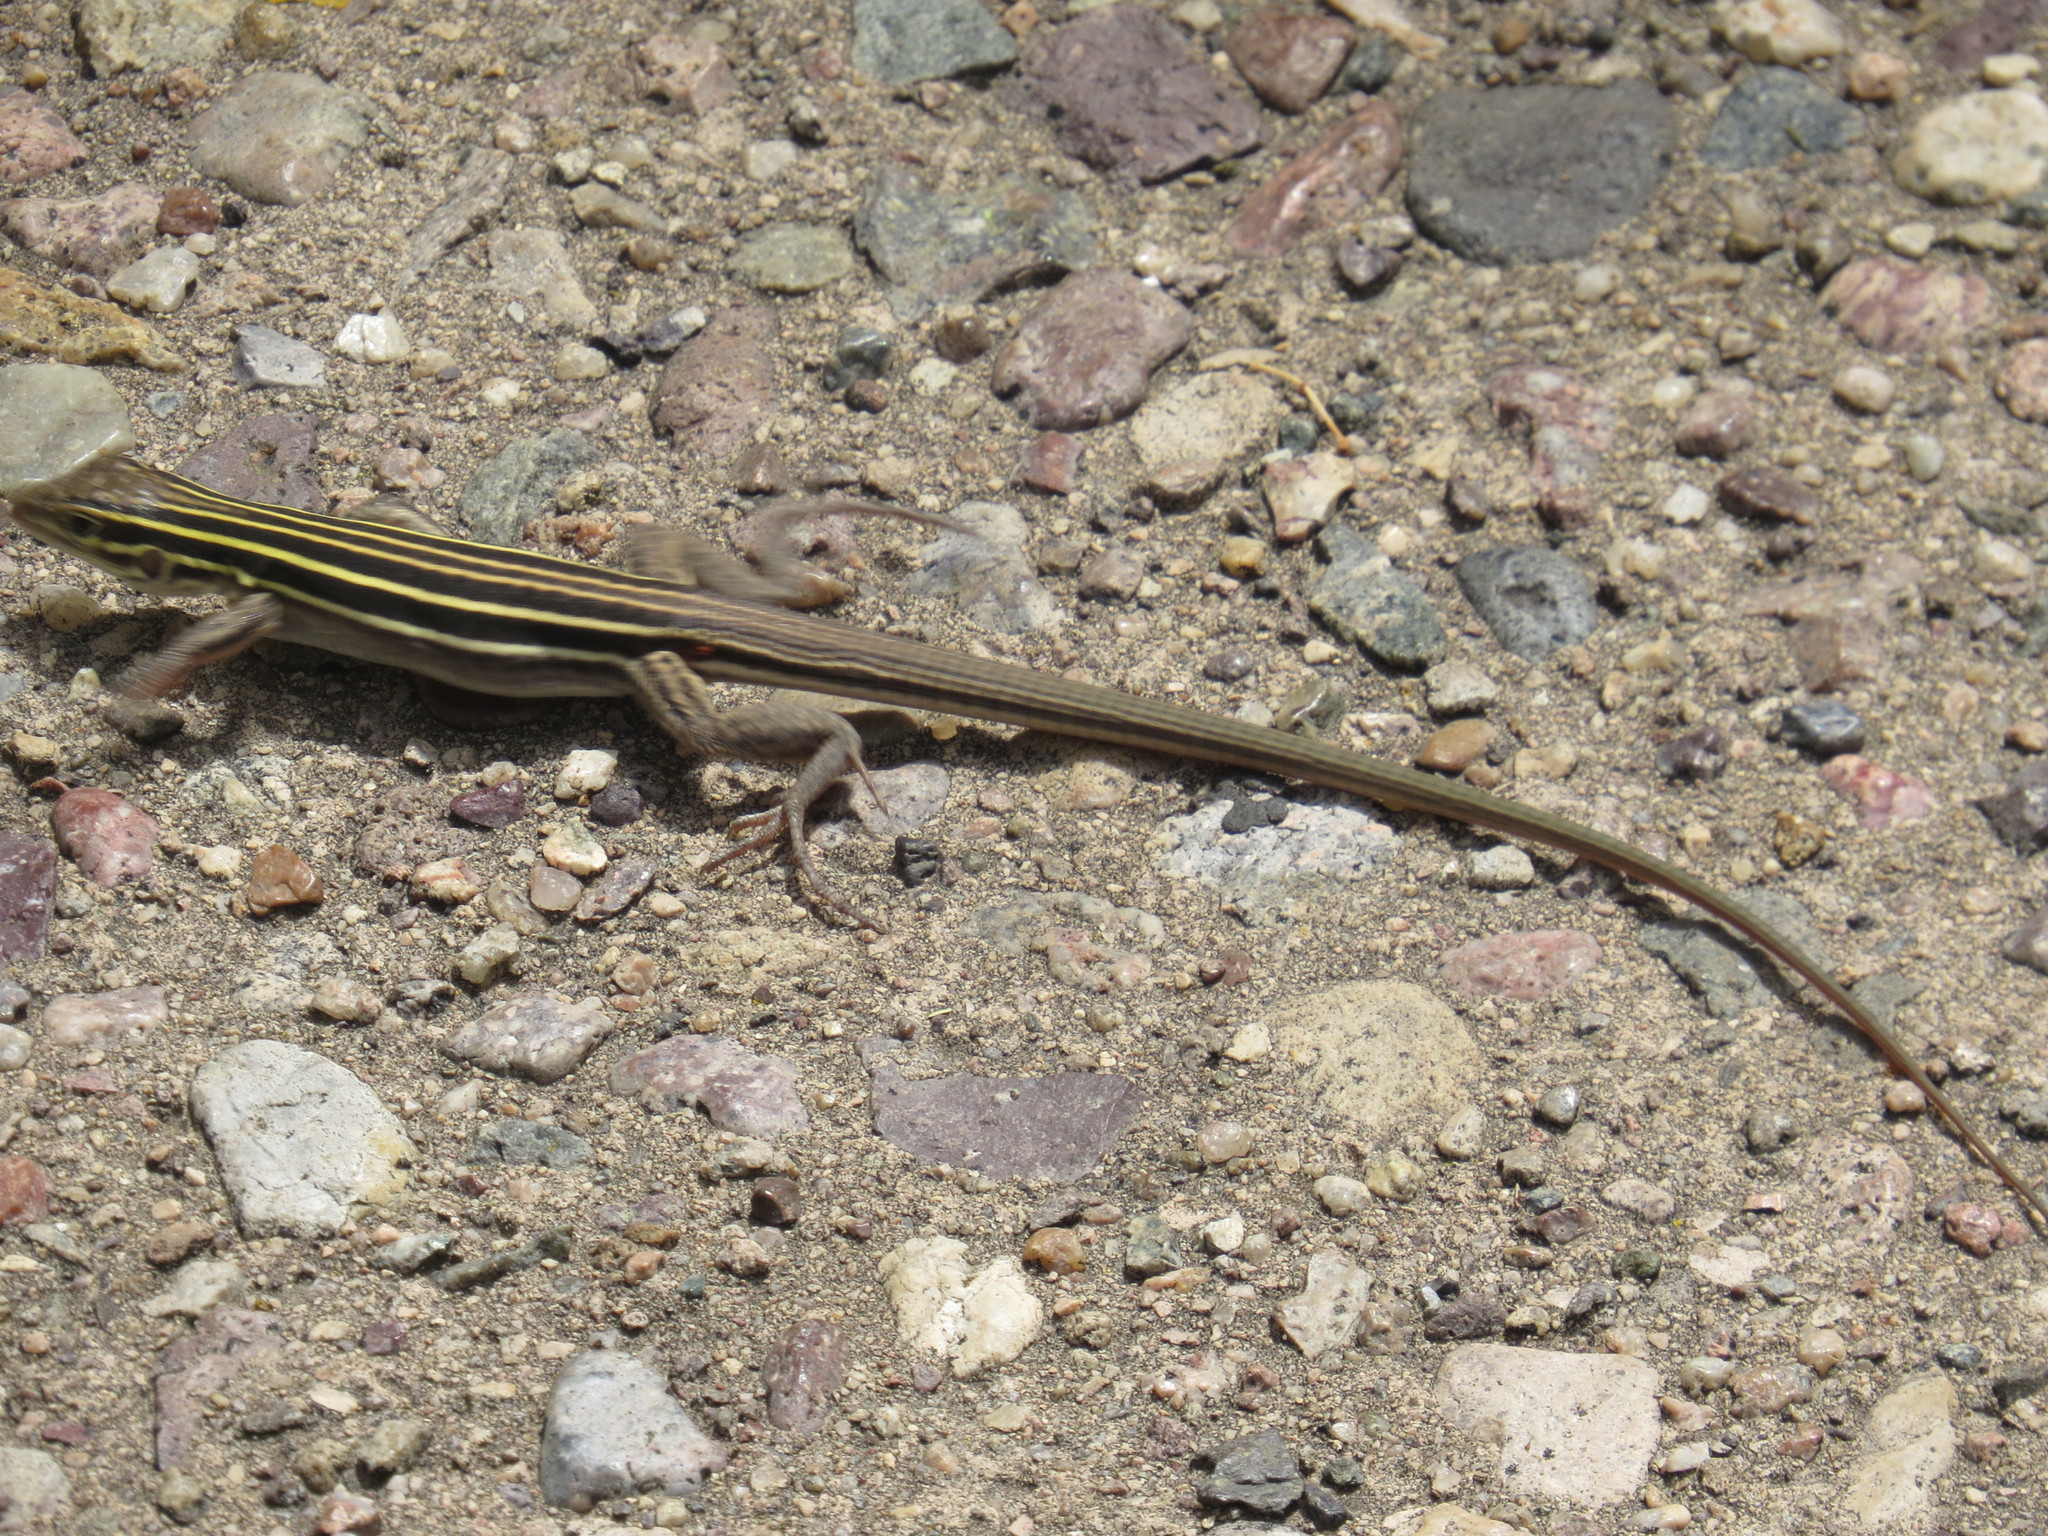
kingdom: Animalia
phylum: Chordata
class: Squamata
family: Teiidae
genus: Aspidoscelis
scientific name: Aspidoscelis uniparens
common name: Desert grassland whiptail
